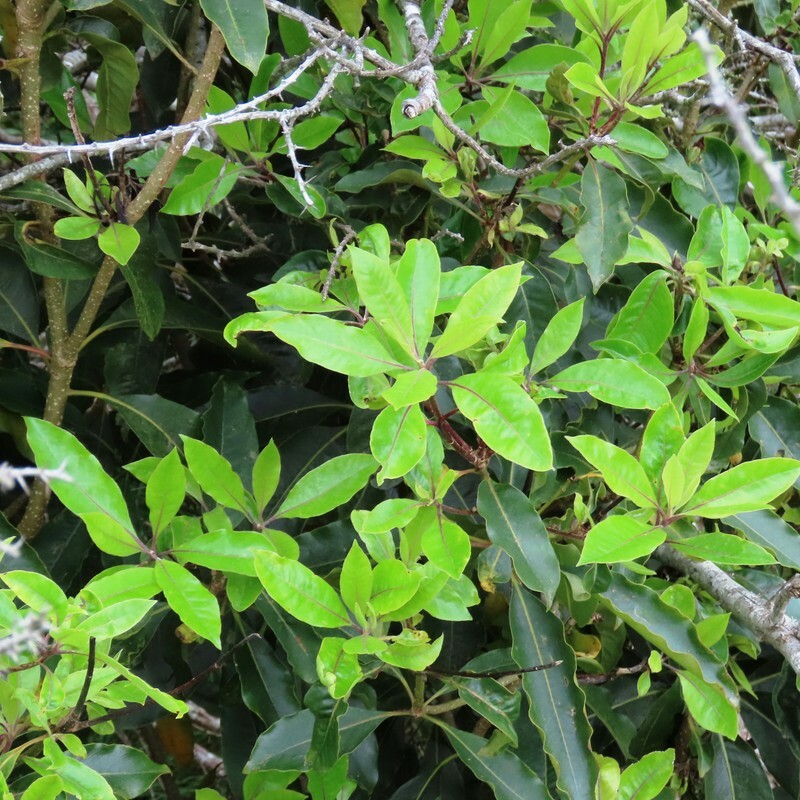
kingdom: Plantae
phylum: Tracheophyta
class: Magnoliopsida
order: Apiales
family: Pittosporaceae
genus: Pittosporum
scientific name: Pittosporum undulatum
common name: Australian cheesewood
